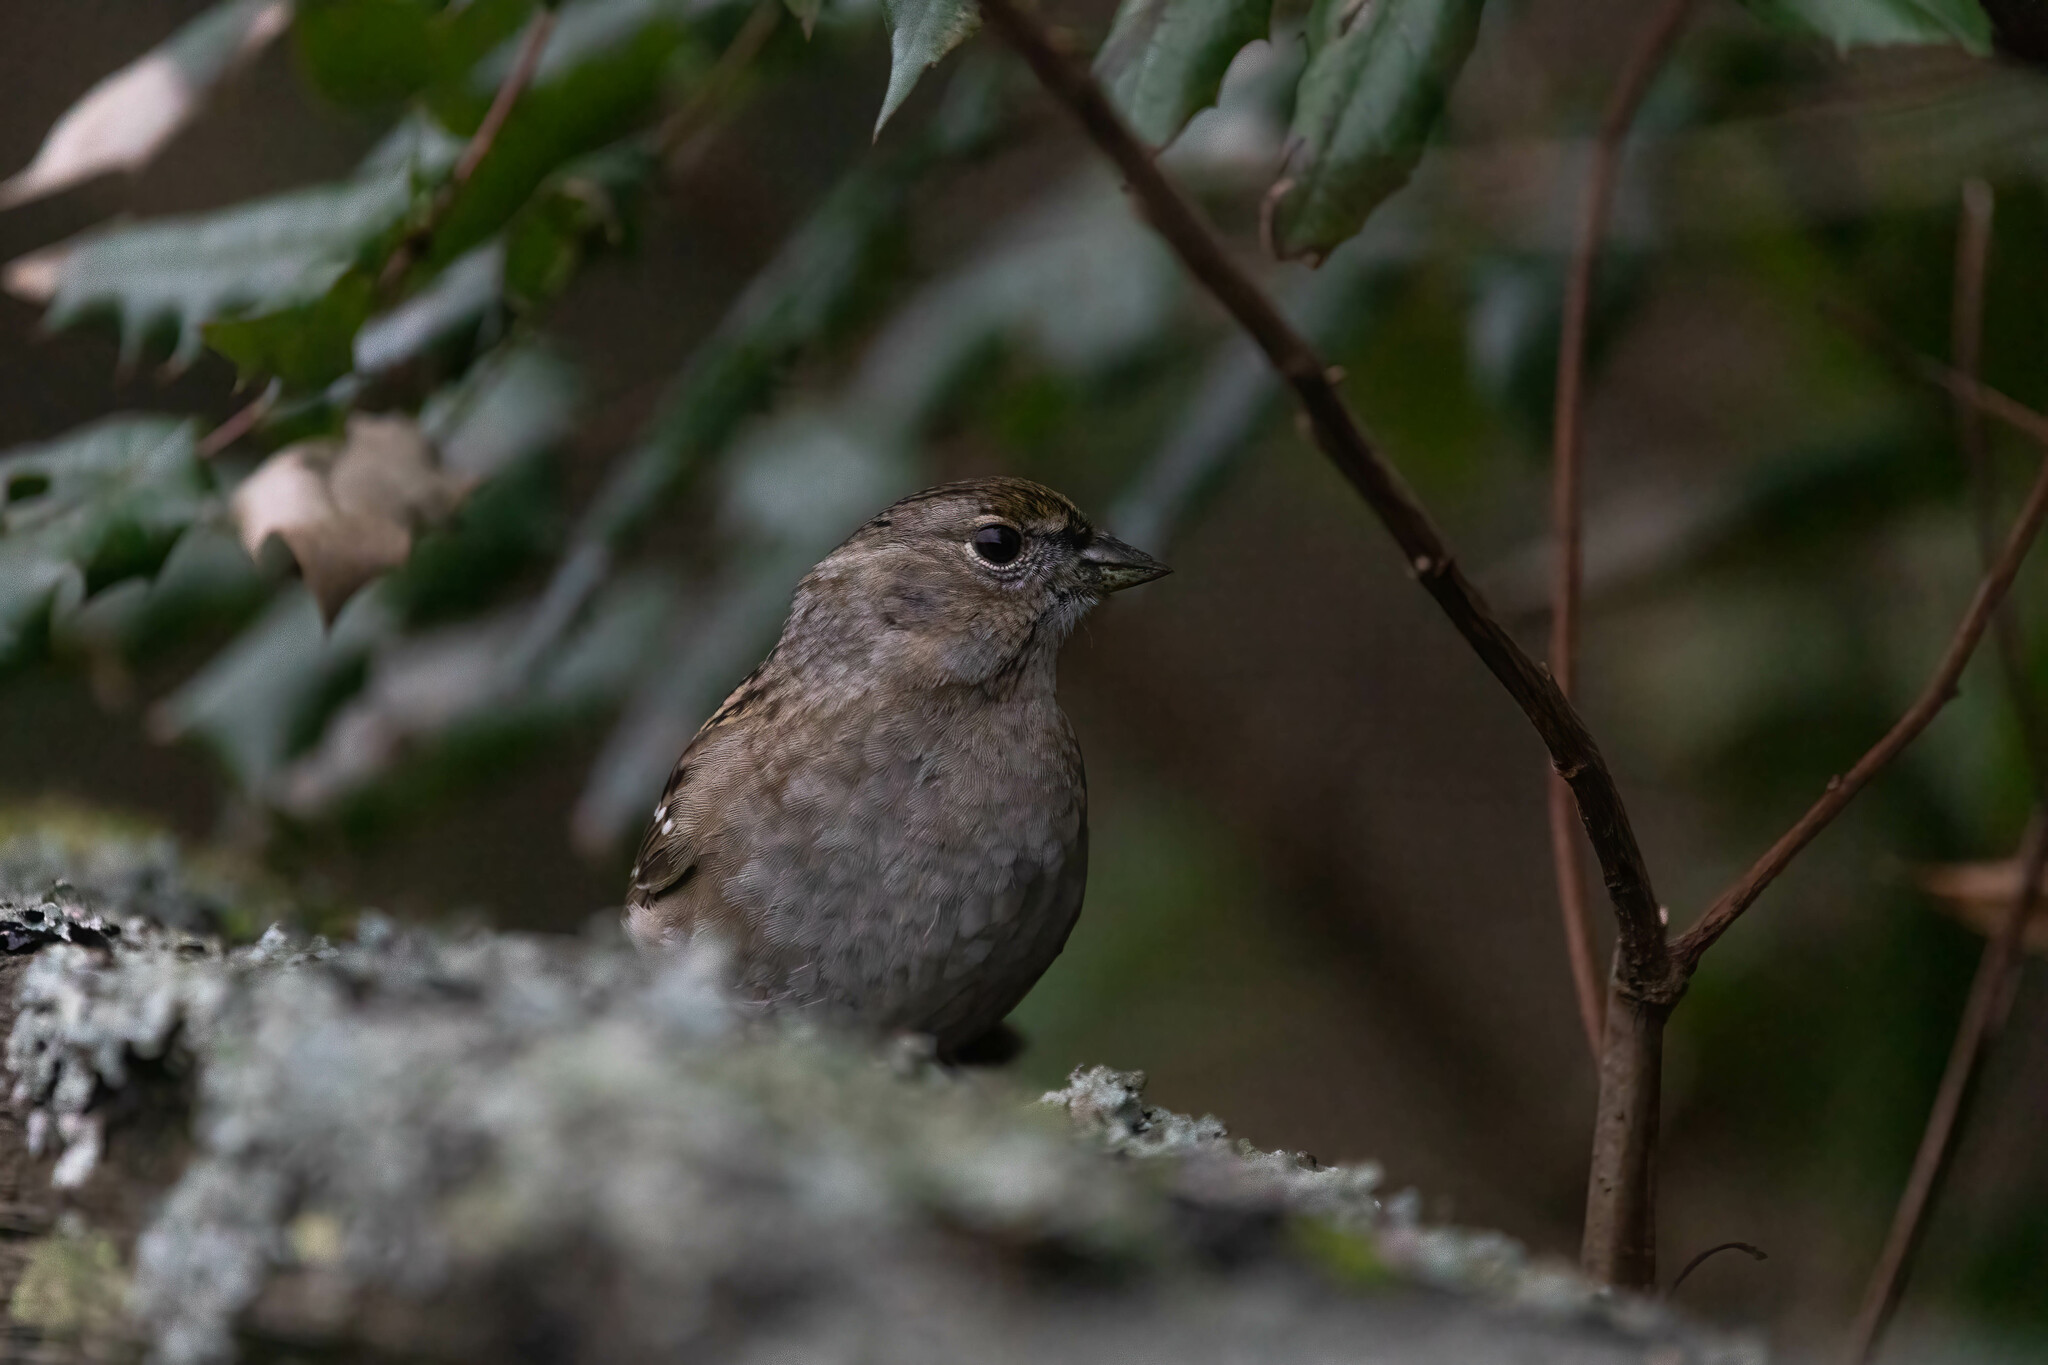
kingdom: Animalia
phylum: Chordata
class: Aves
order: Passeriformes
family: Passerellidae
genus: Zonotrichia
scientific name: Zonotrichia atricapilla
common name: Golden-crowned sparrow
